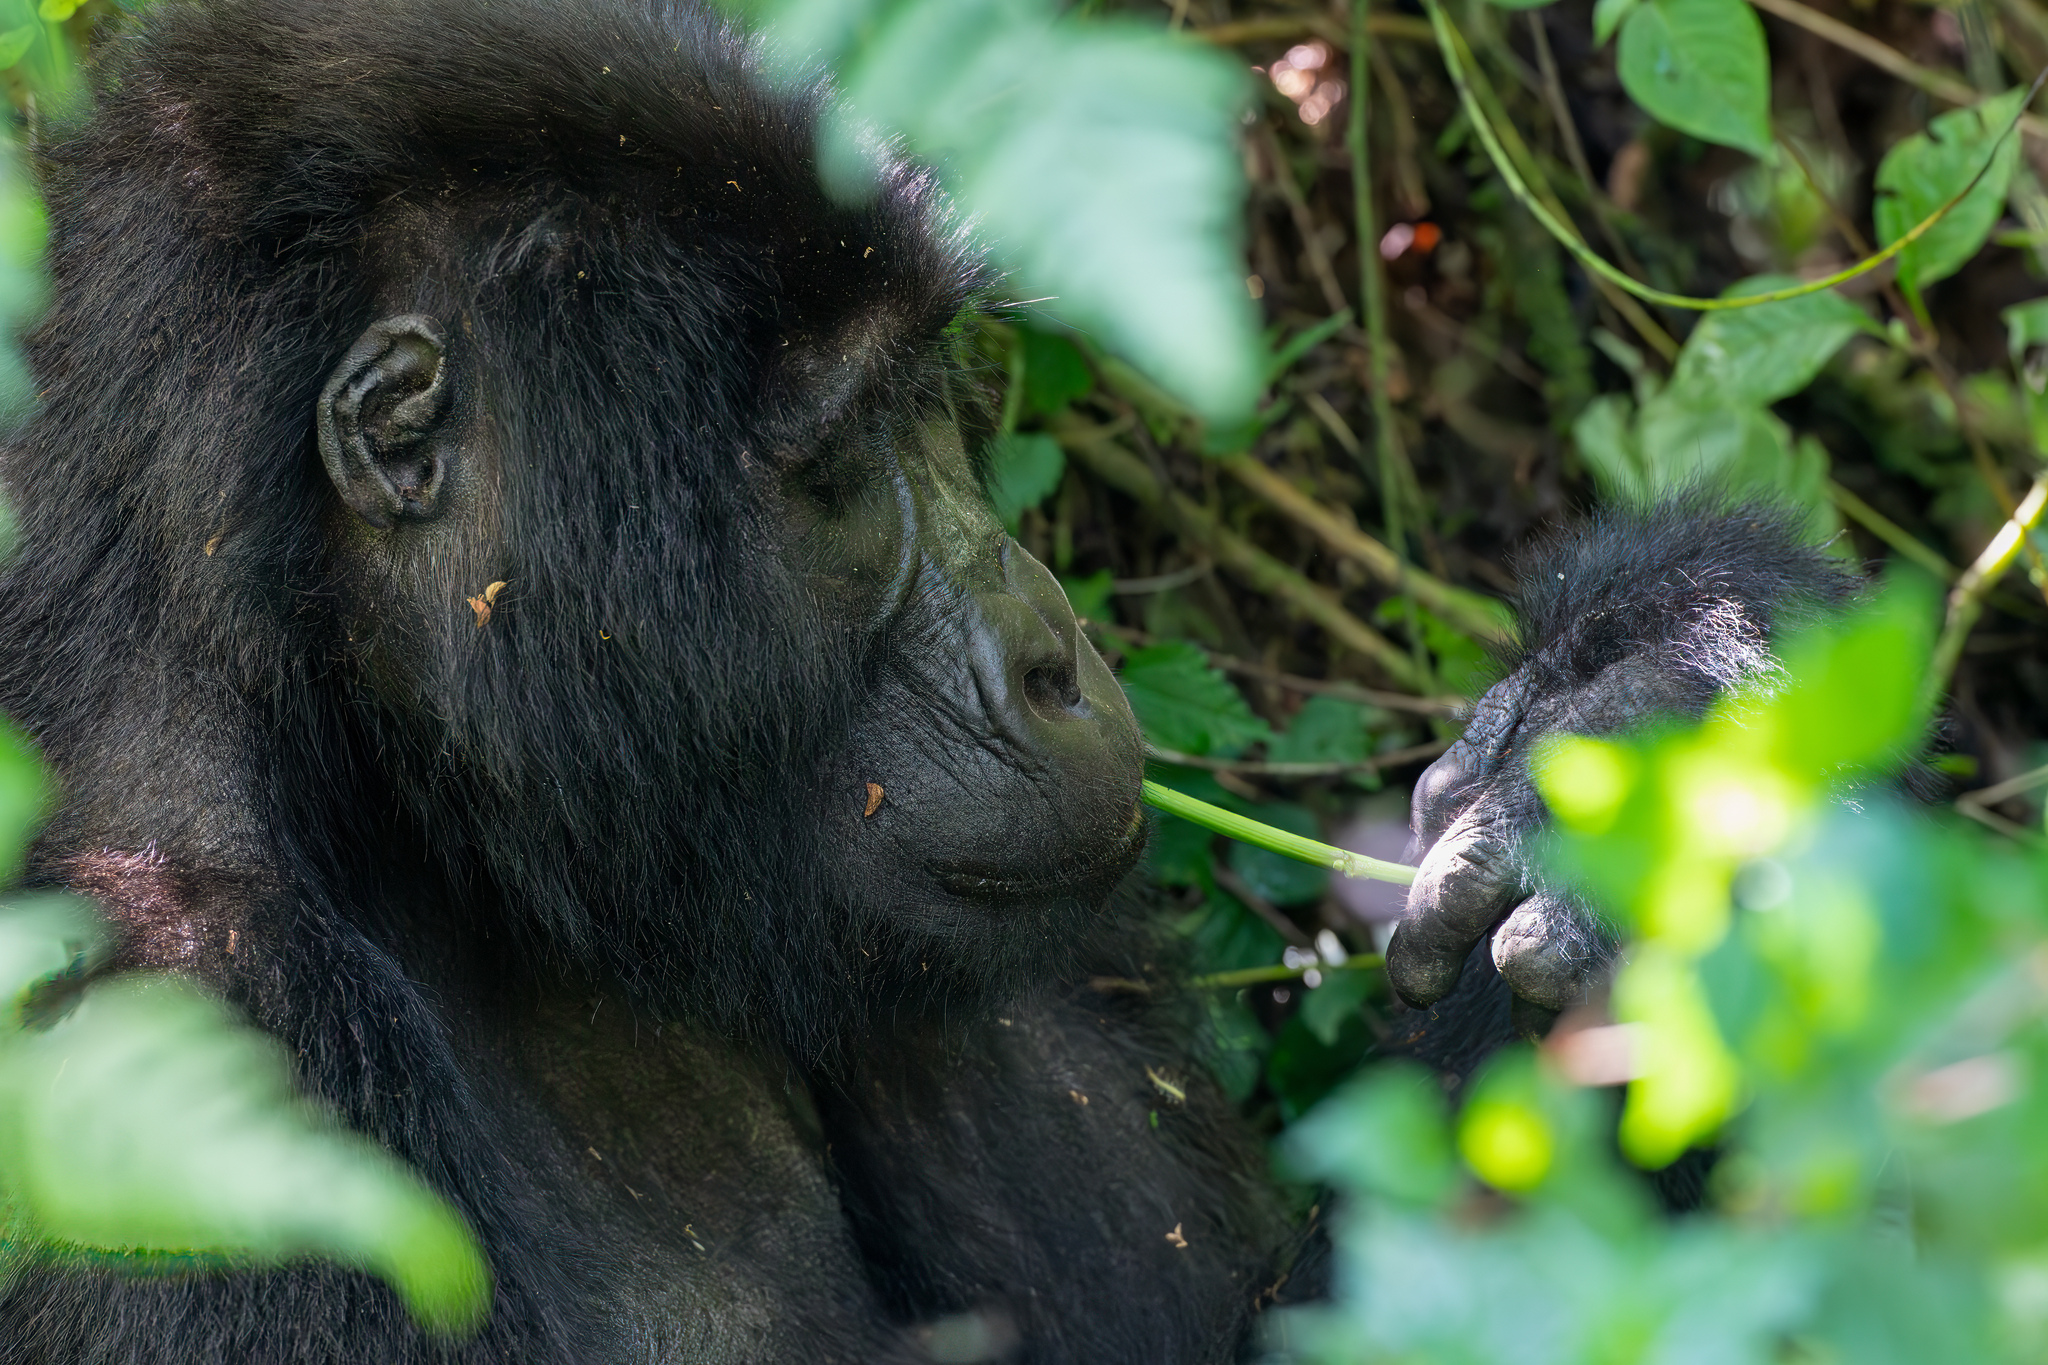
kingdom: Animalia
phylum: Chordata
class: Mammalia
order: Primates
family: Hominidae
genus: Gorilla
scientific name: Gorilla beringei
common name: Eastern gorilla
